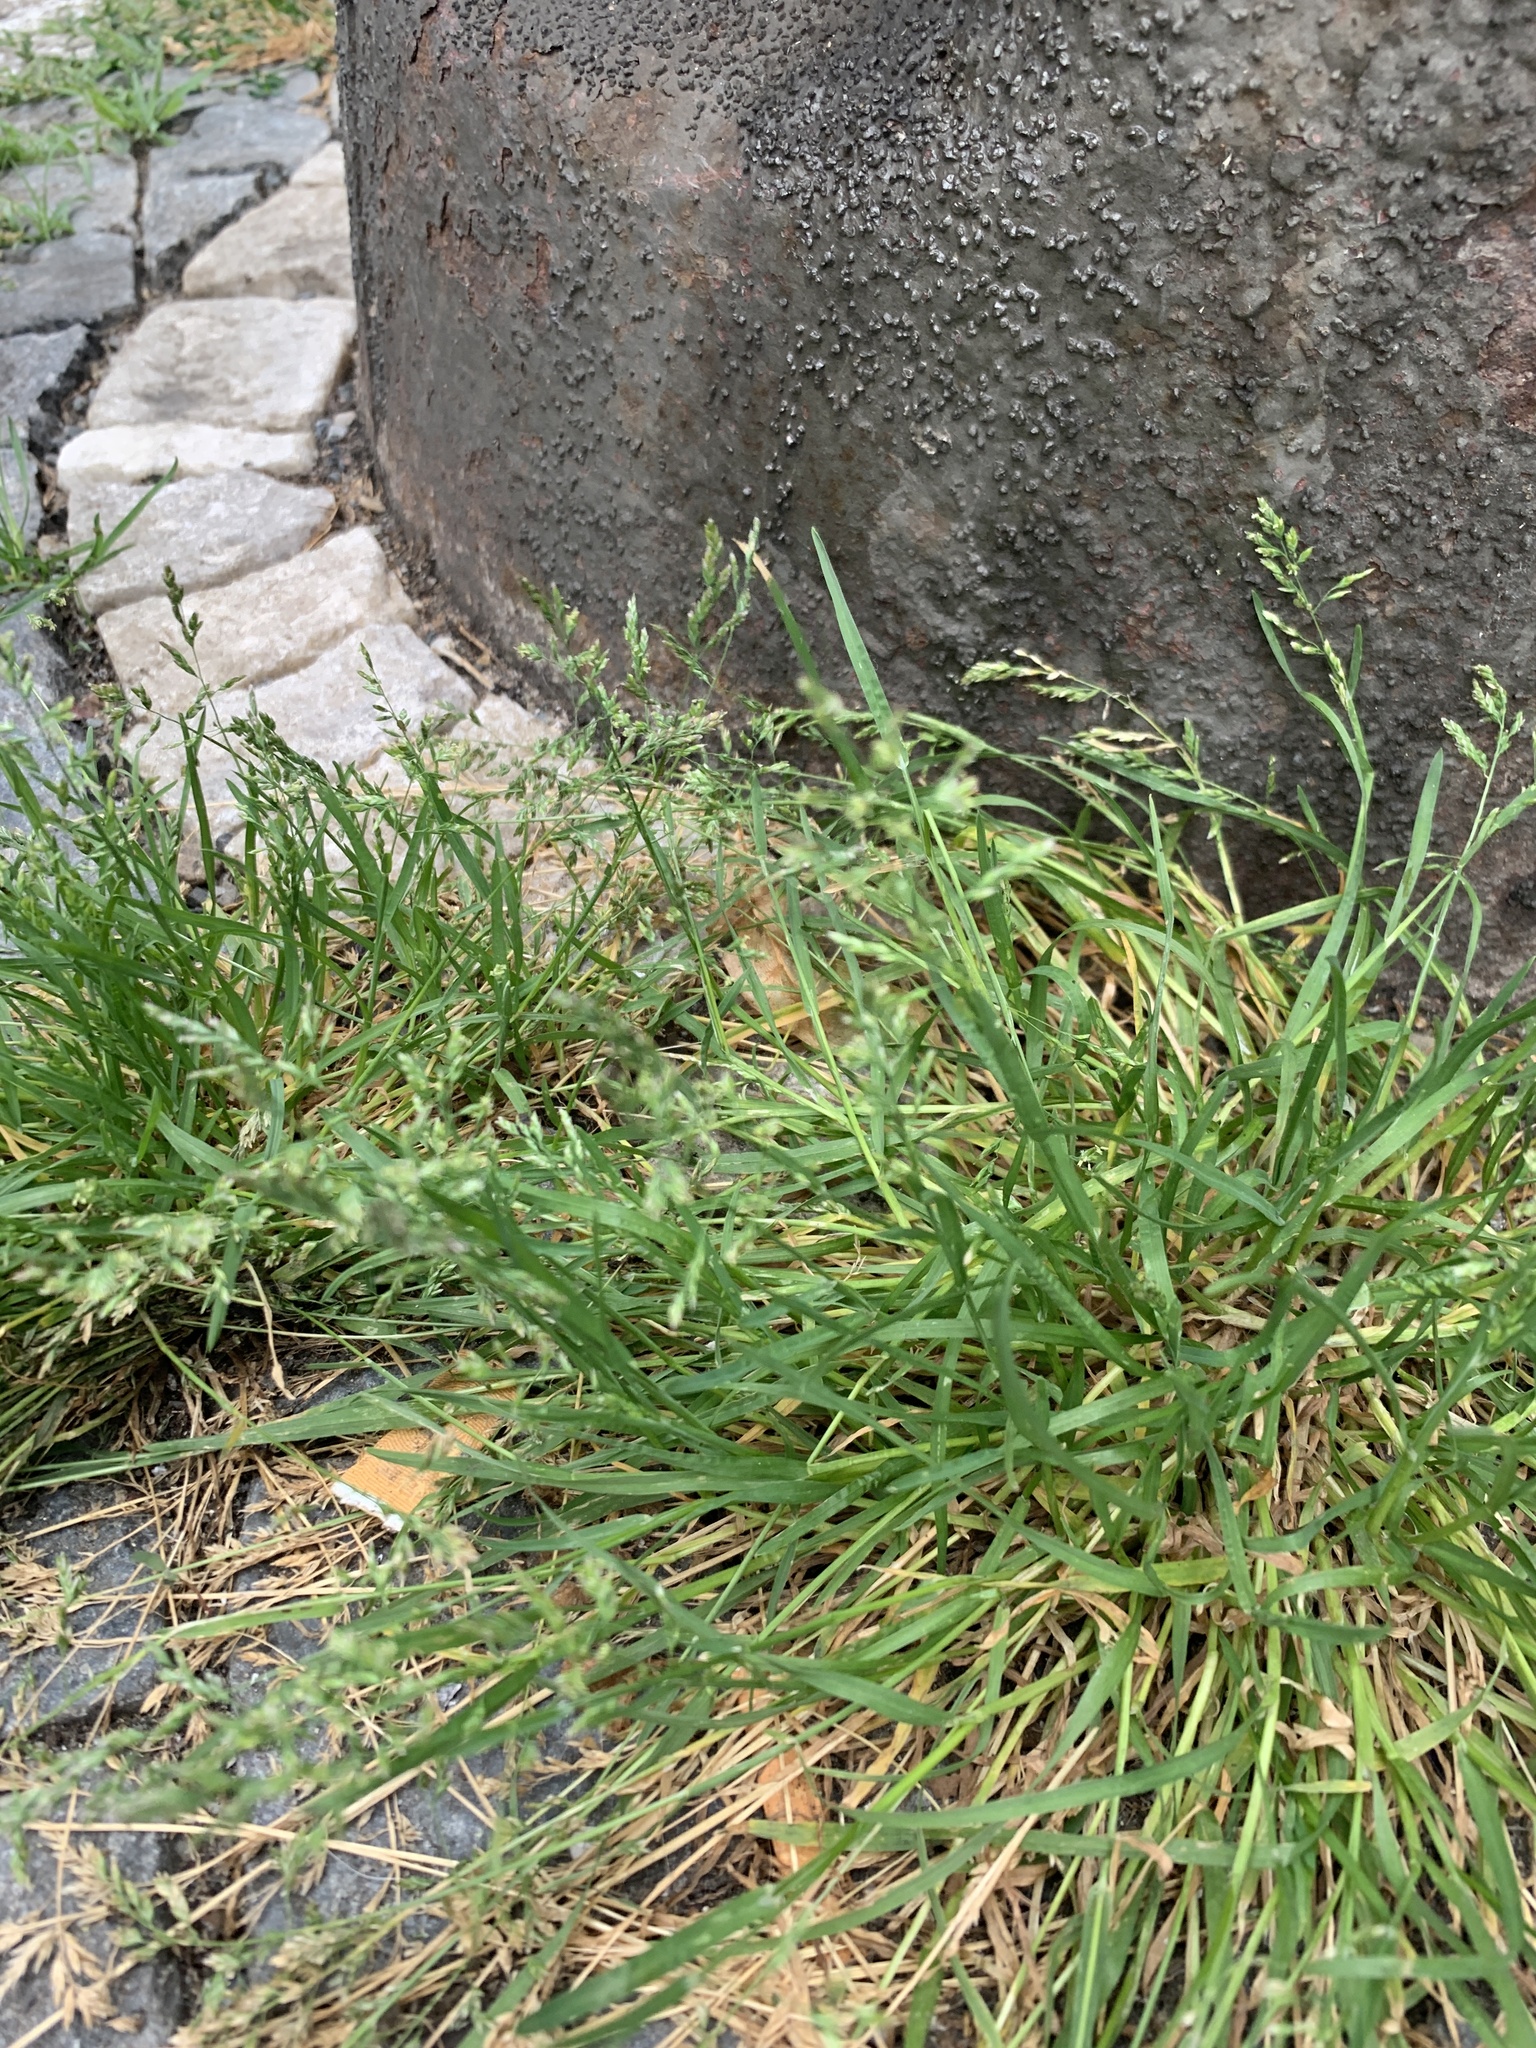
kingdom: Plantae
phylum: Tracheophyta
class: Liliopsida
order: Poales
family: Poaceae
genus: Poa
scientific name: Poa annua
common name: Annual bluegrass
